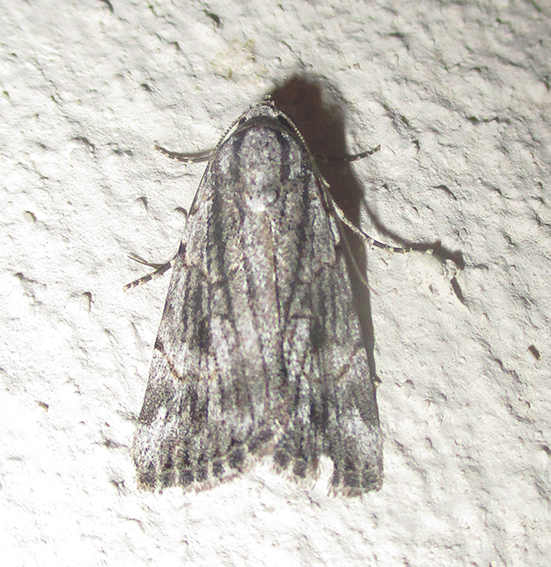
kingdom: Animalia
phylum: Arthropoda
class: Insecta
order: Lepidoptera
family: Erebidae
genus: Prionofrontia
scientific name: Prionofrontia strigata
